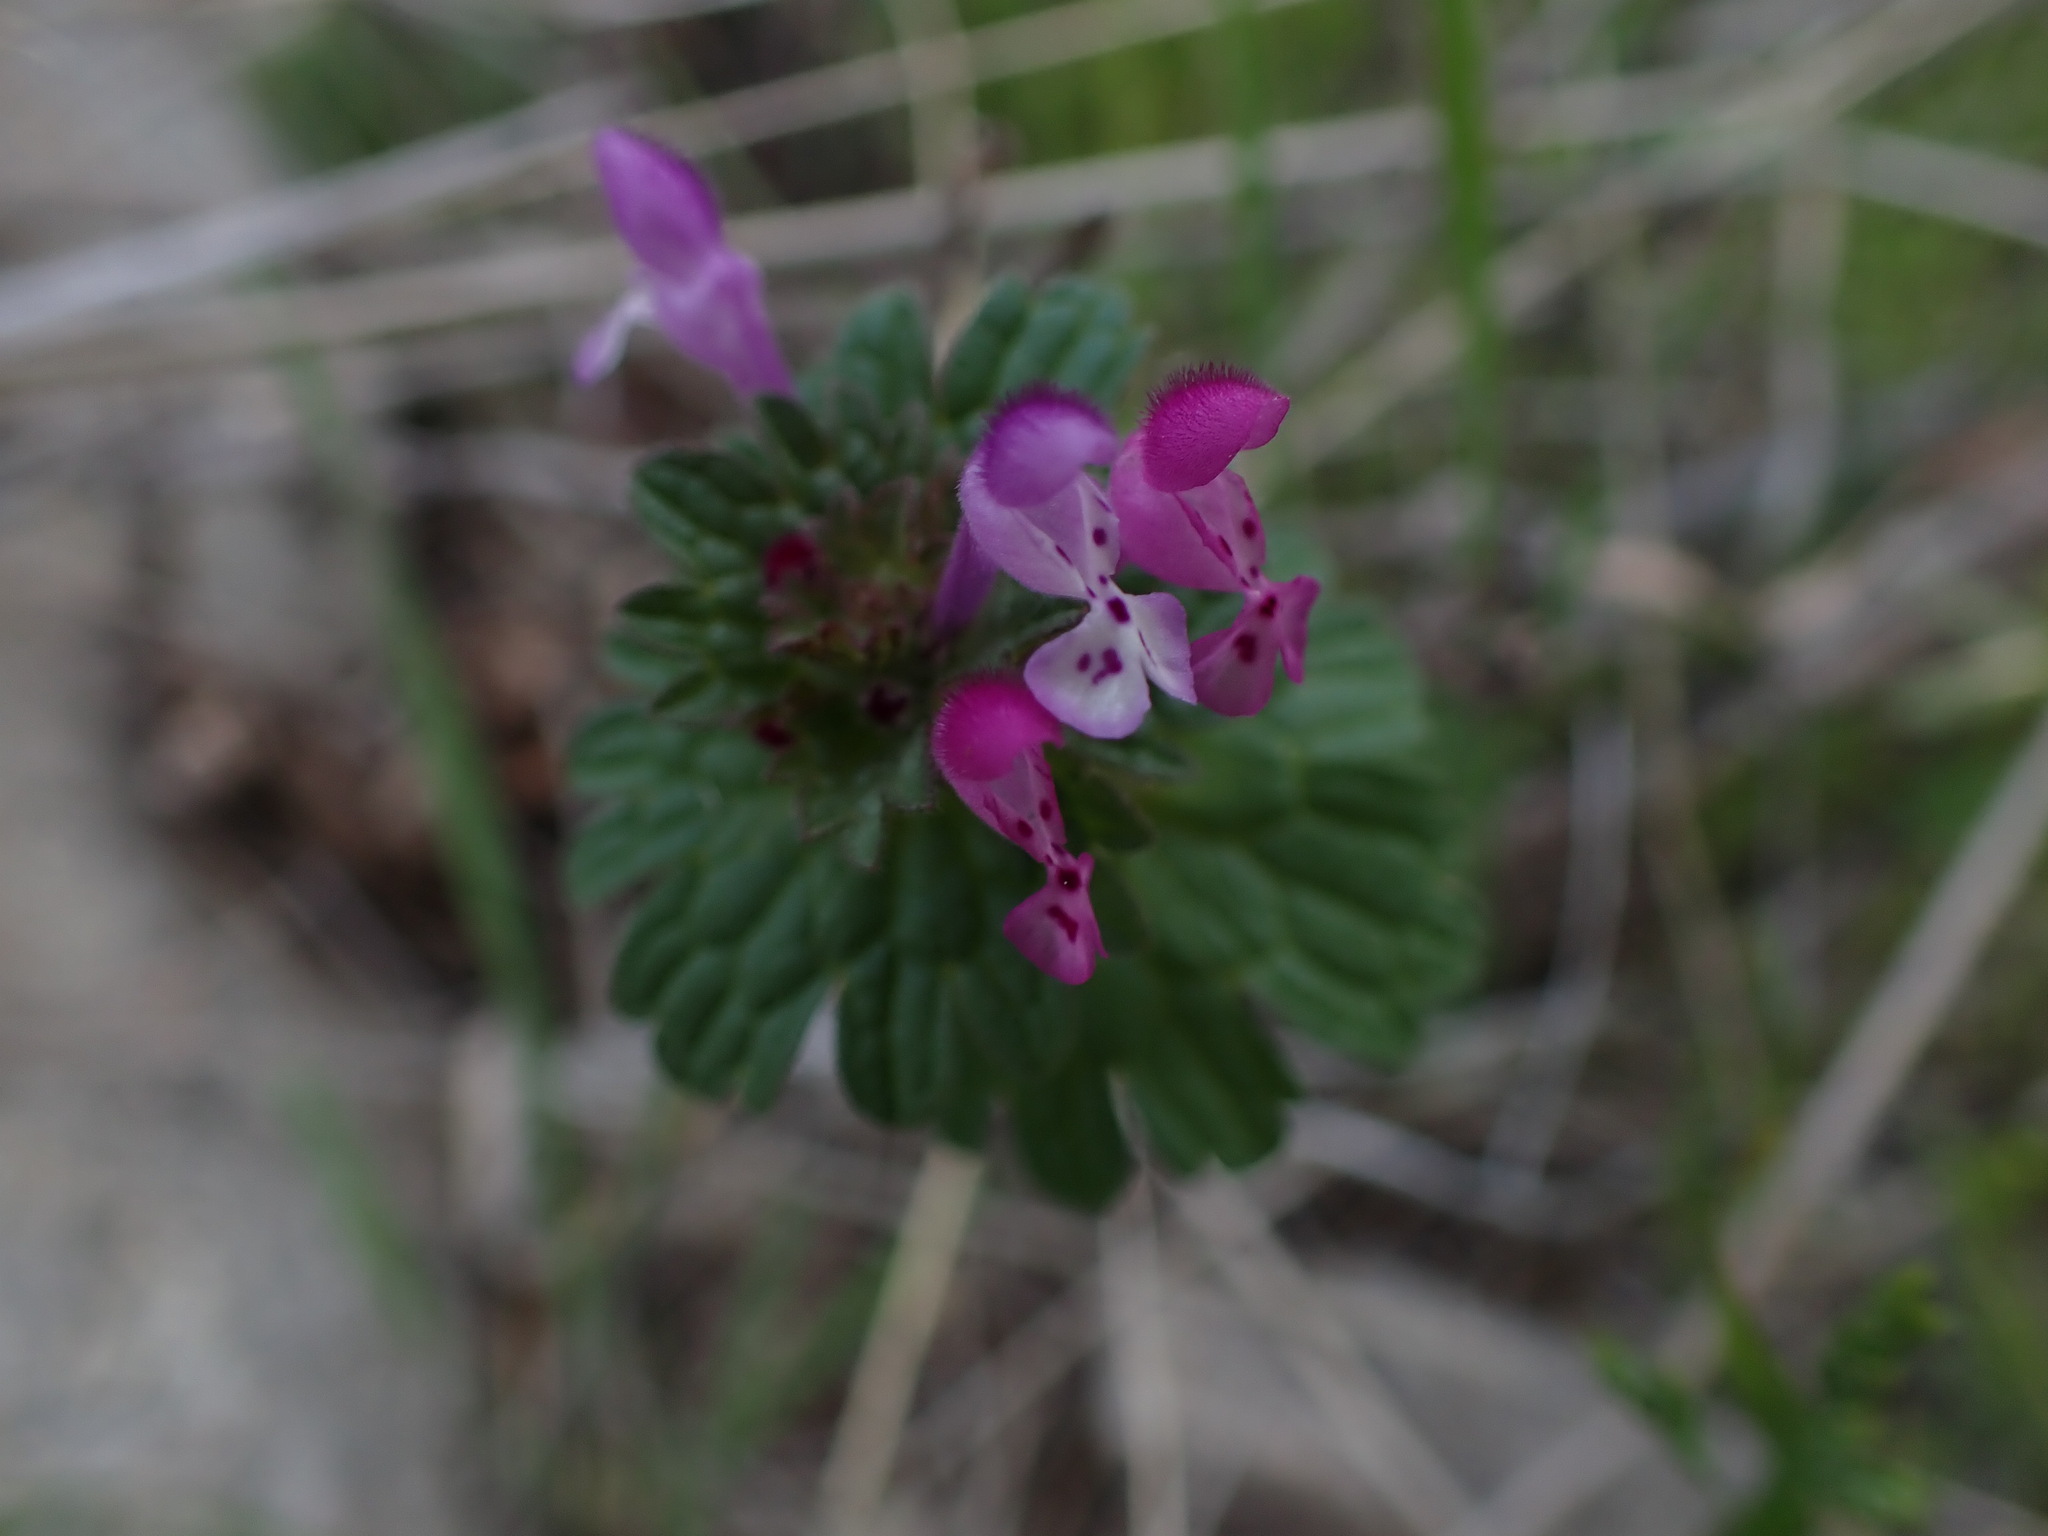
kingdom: Plantae
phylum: Tracheophyta
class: Magnoliopsida
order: Lamiales
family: Lamiaceae
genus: Lamium
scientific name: Lamium amplexicaule
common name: Henbit dead-nettle
